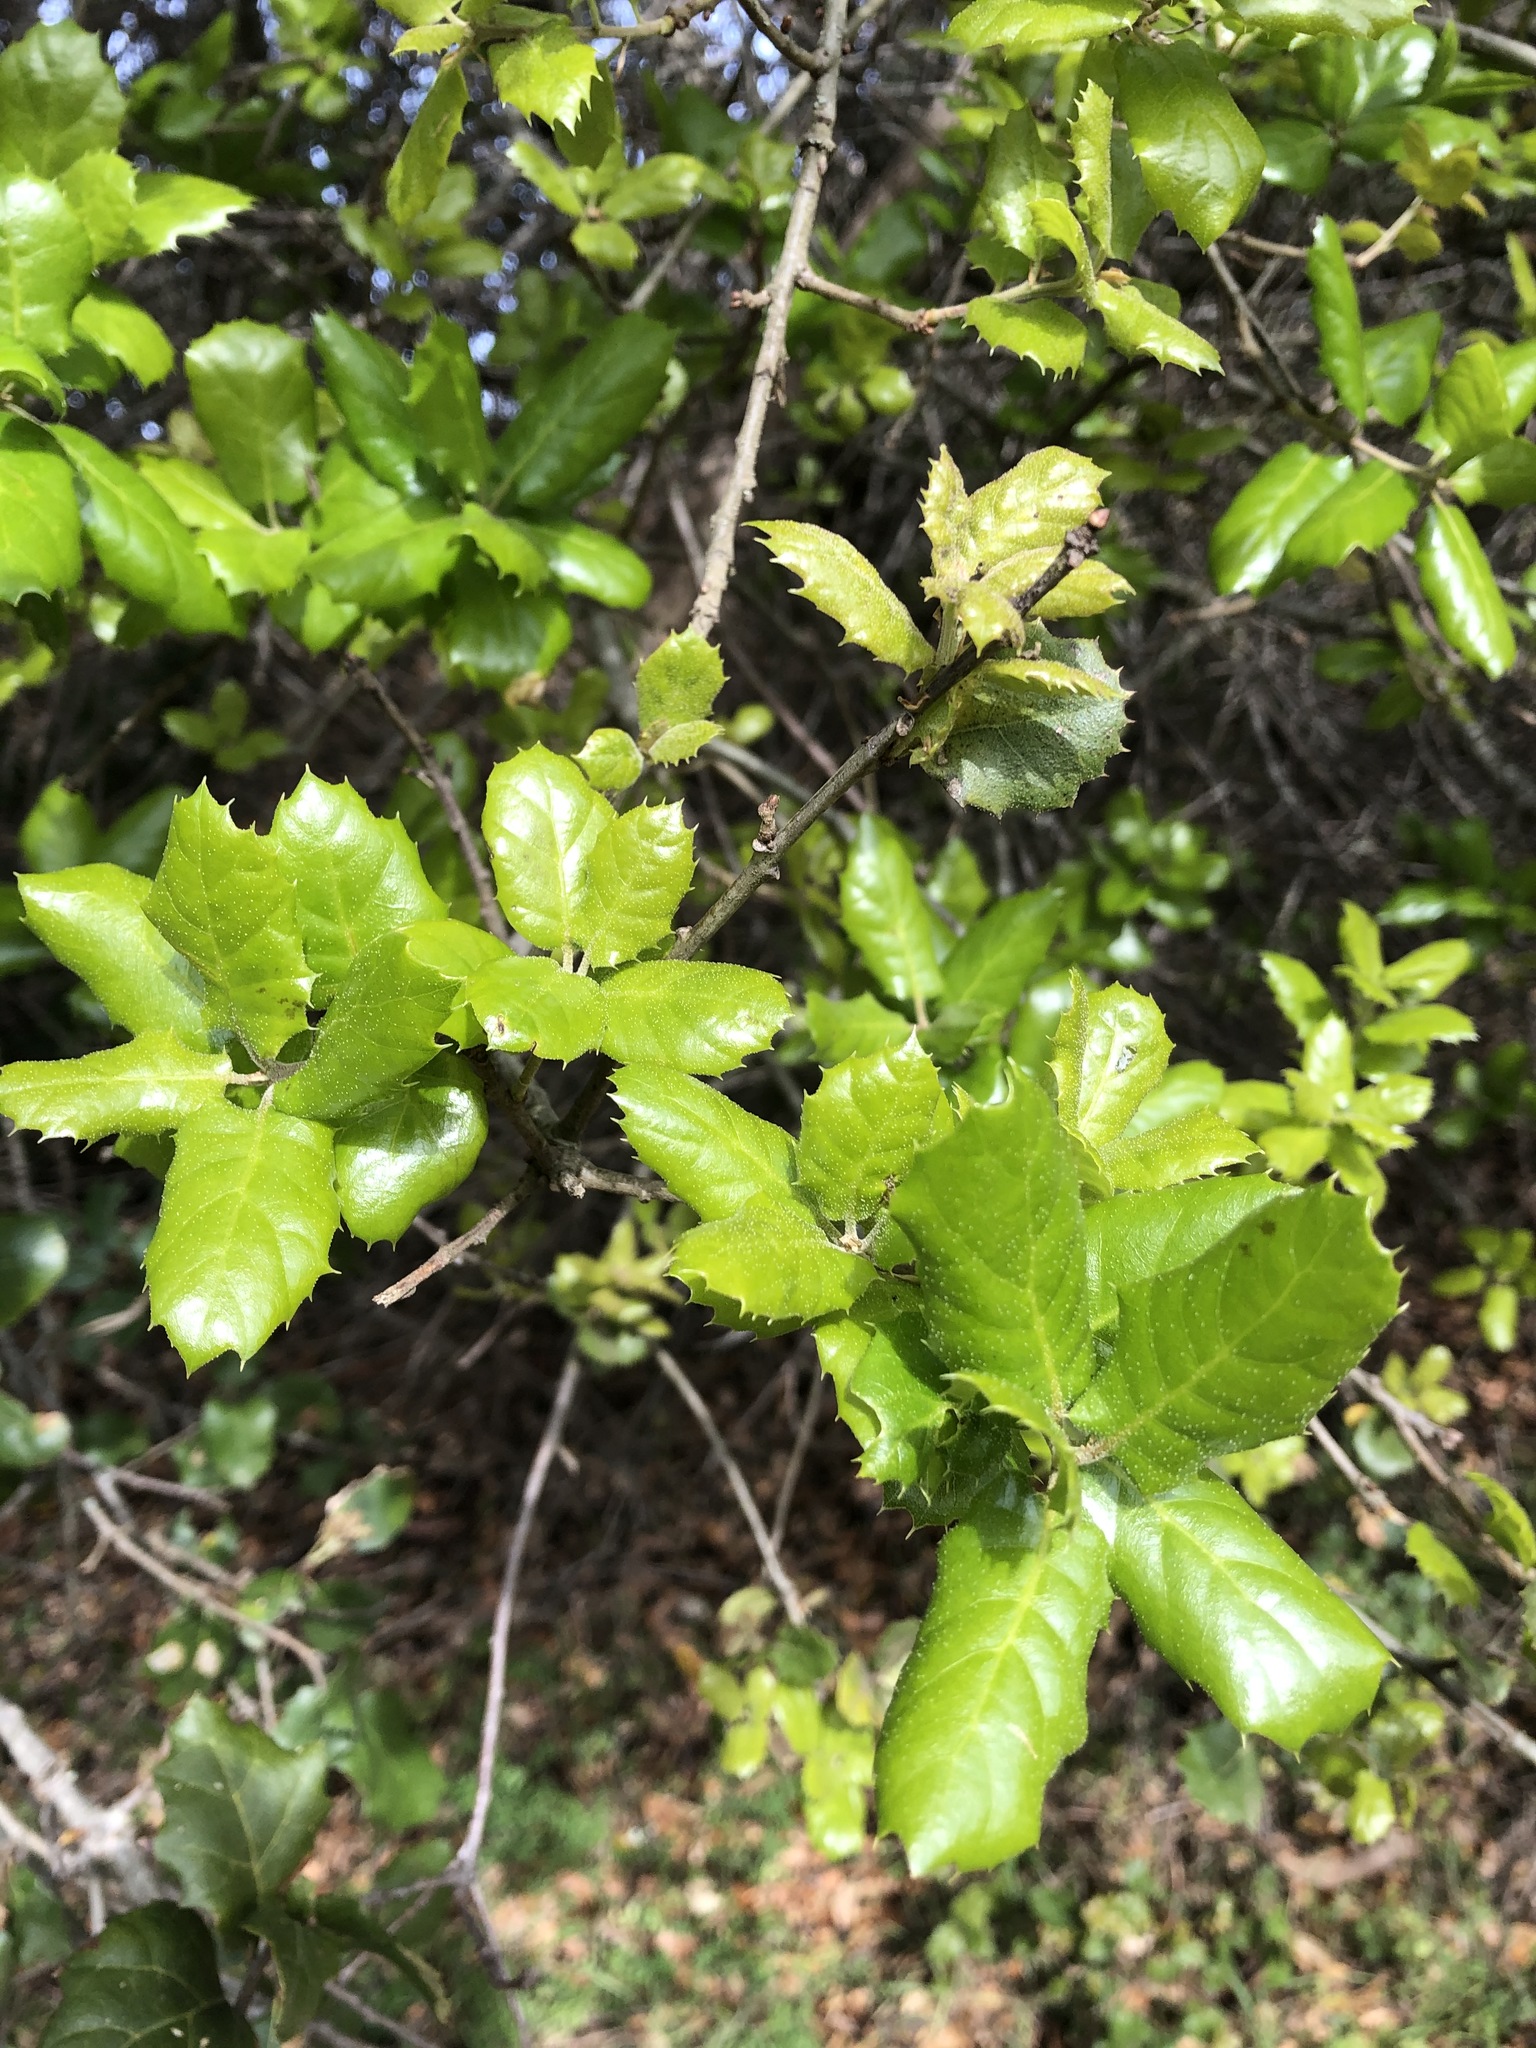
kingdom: Plantae
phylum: Tracheophyta
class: Magnoliopsida
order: Fagales
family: Fagaceae
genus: Quercus
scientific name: Quercus agrifolia
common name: California live oak
